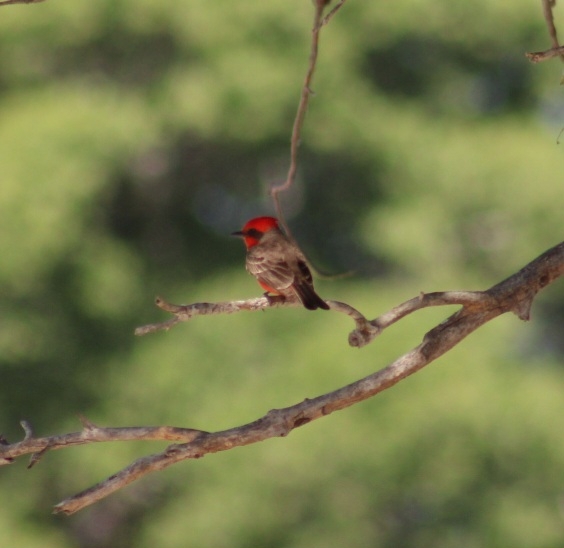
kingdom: Animalia
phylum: Chordata
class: Aves
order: Passeriformes
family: Tyrannidae
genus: Pyrocephalus
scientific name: Pyrocephalus rubinus
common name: Vermilion flycatcher
